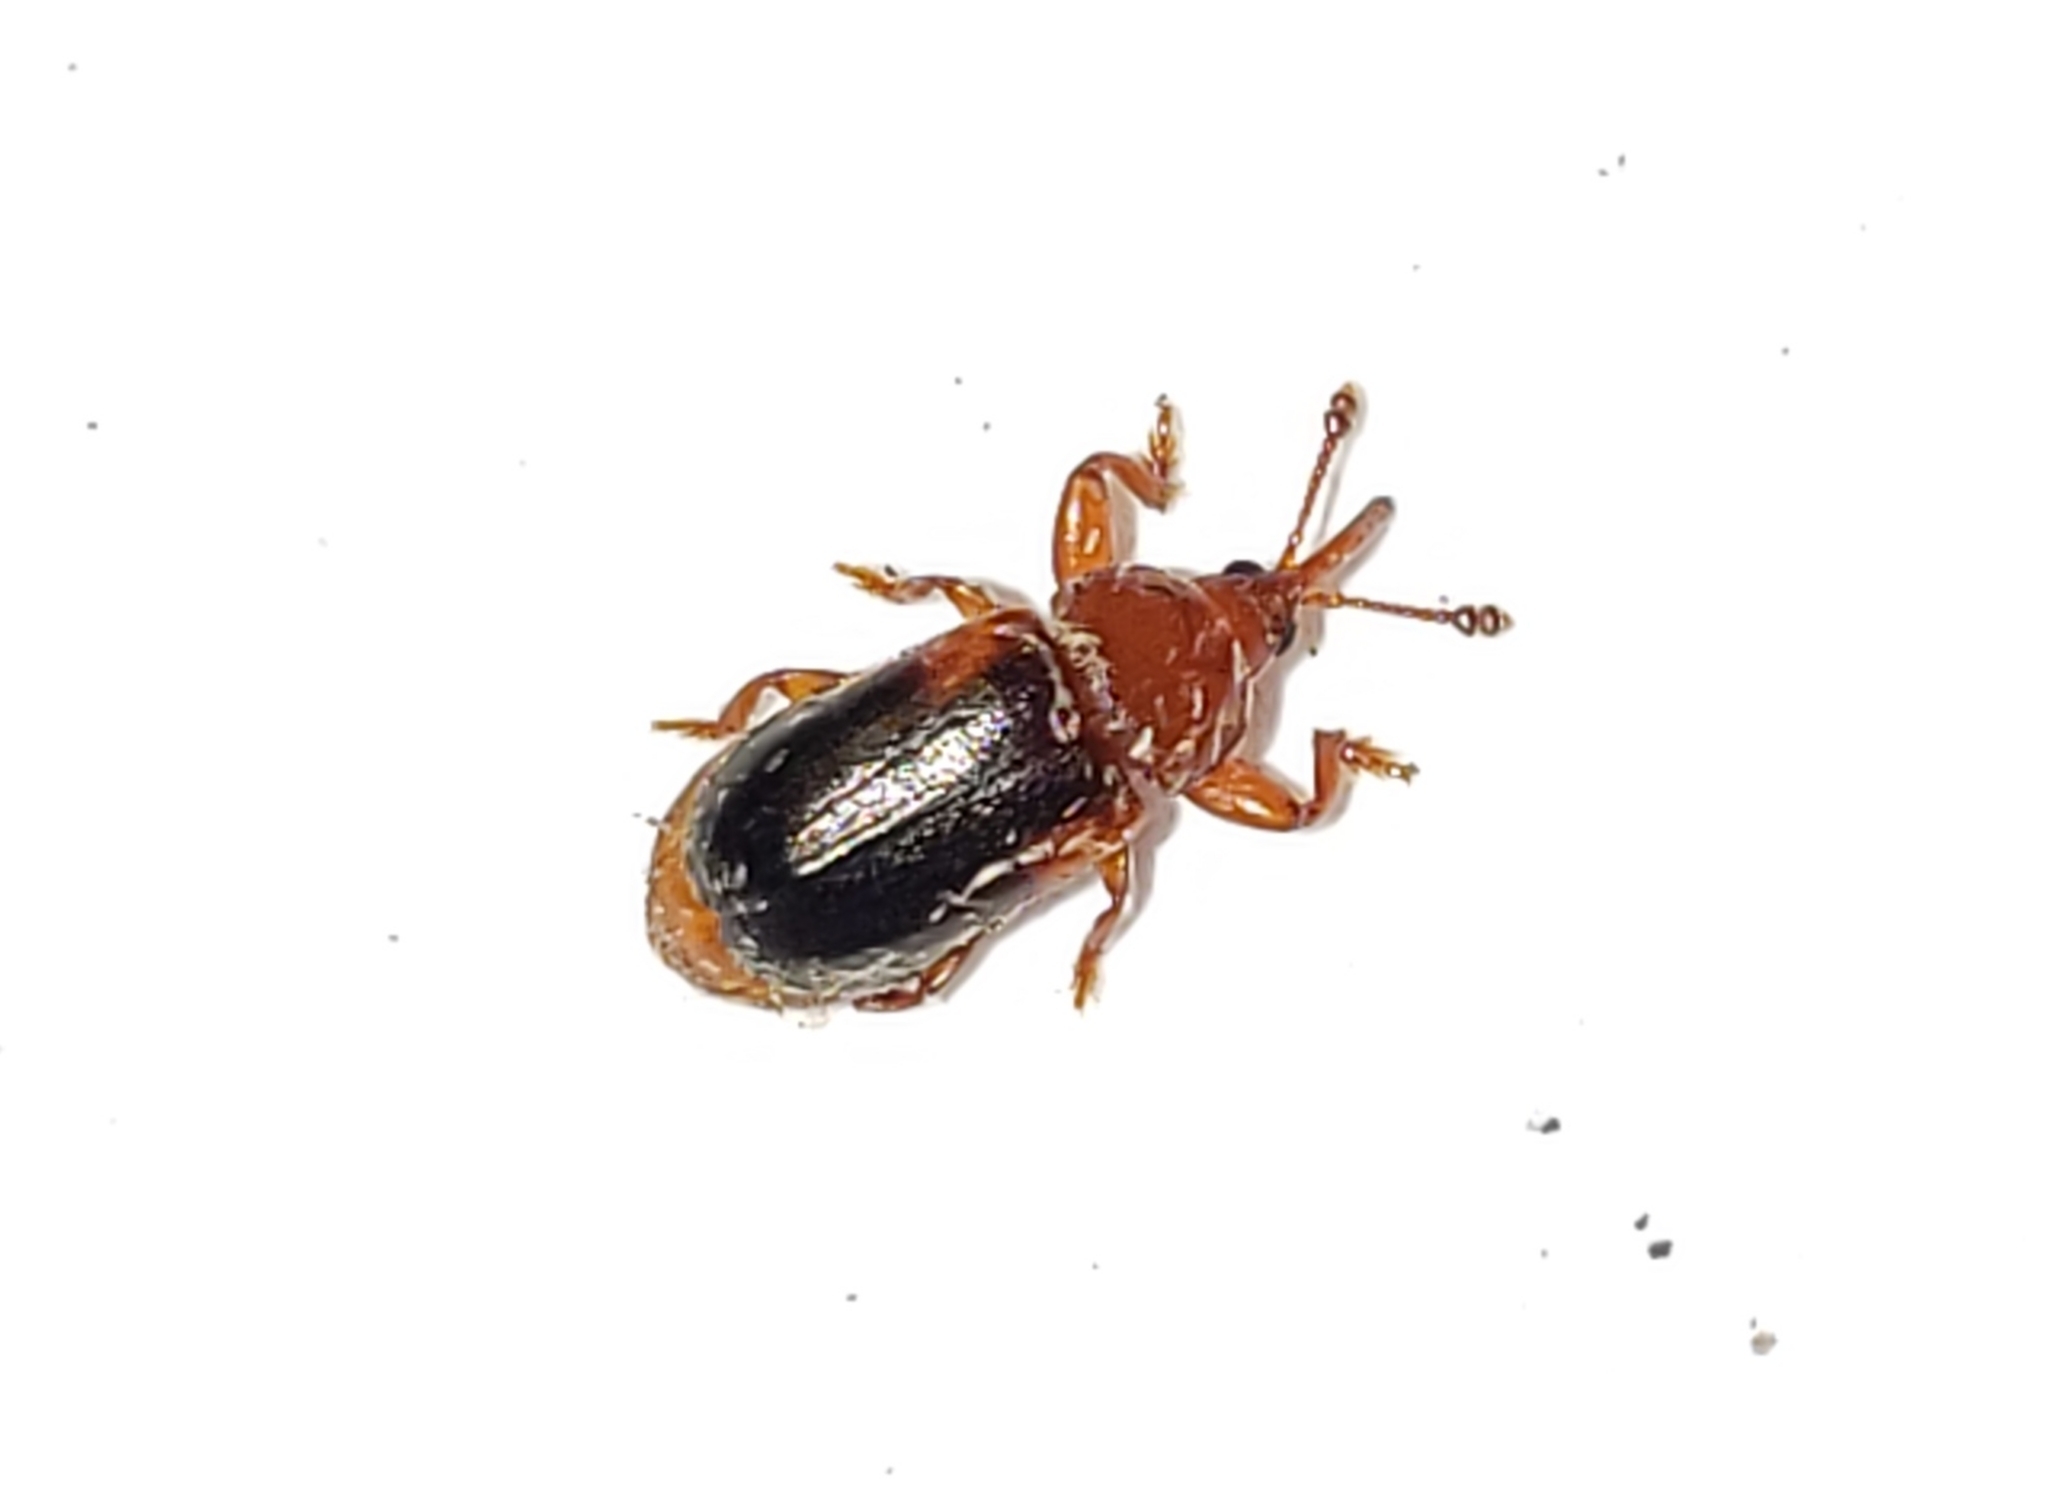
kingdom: Animalia
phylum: Arthropoda
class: Insecta
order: Coleoptera
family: Belidae
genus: Allocorynus
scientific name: Allocorynus slossoni
